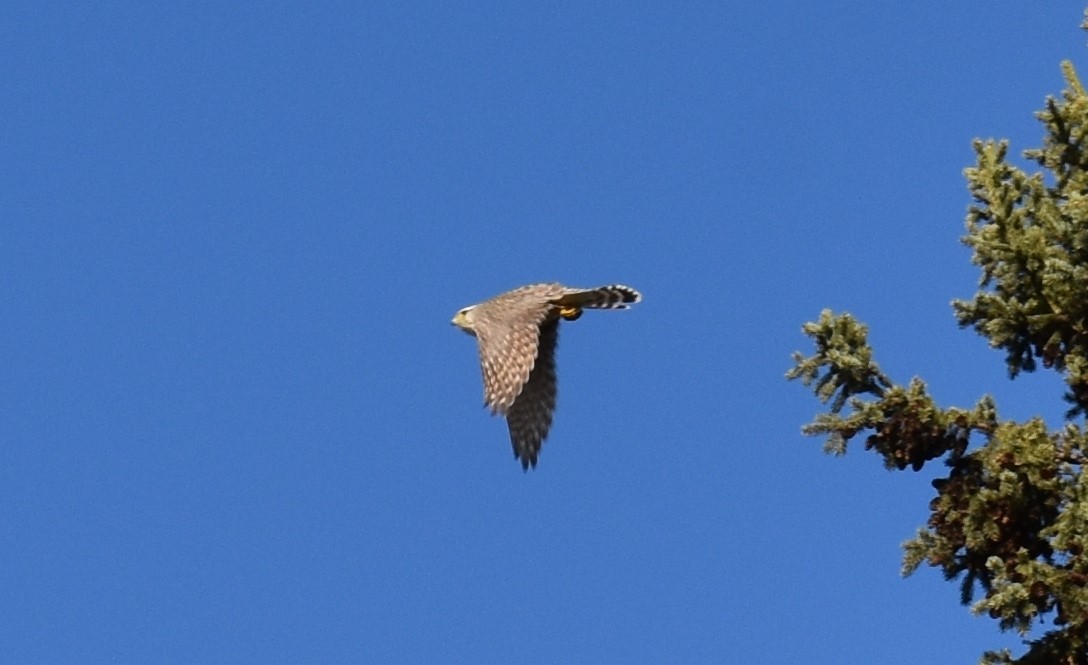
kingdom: Animalia
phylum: Chordata
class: Aves
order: Falconiformes
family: Falconidae
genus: Falco
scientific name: Falco columbarius
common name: Merlin
